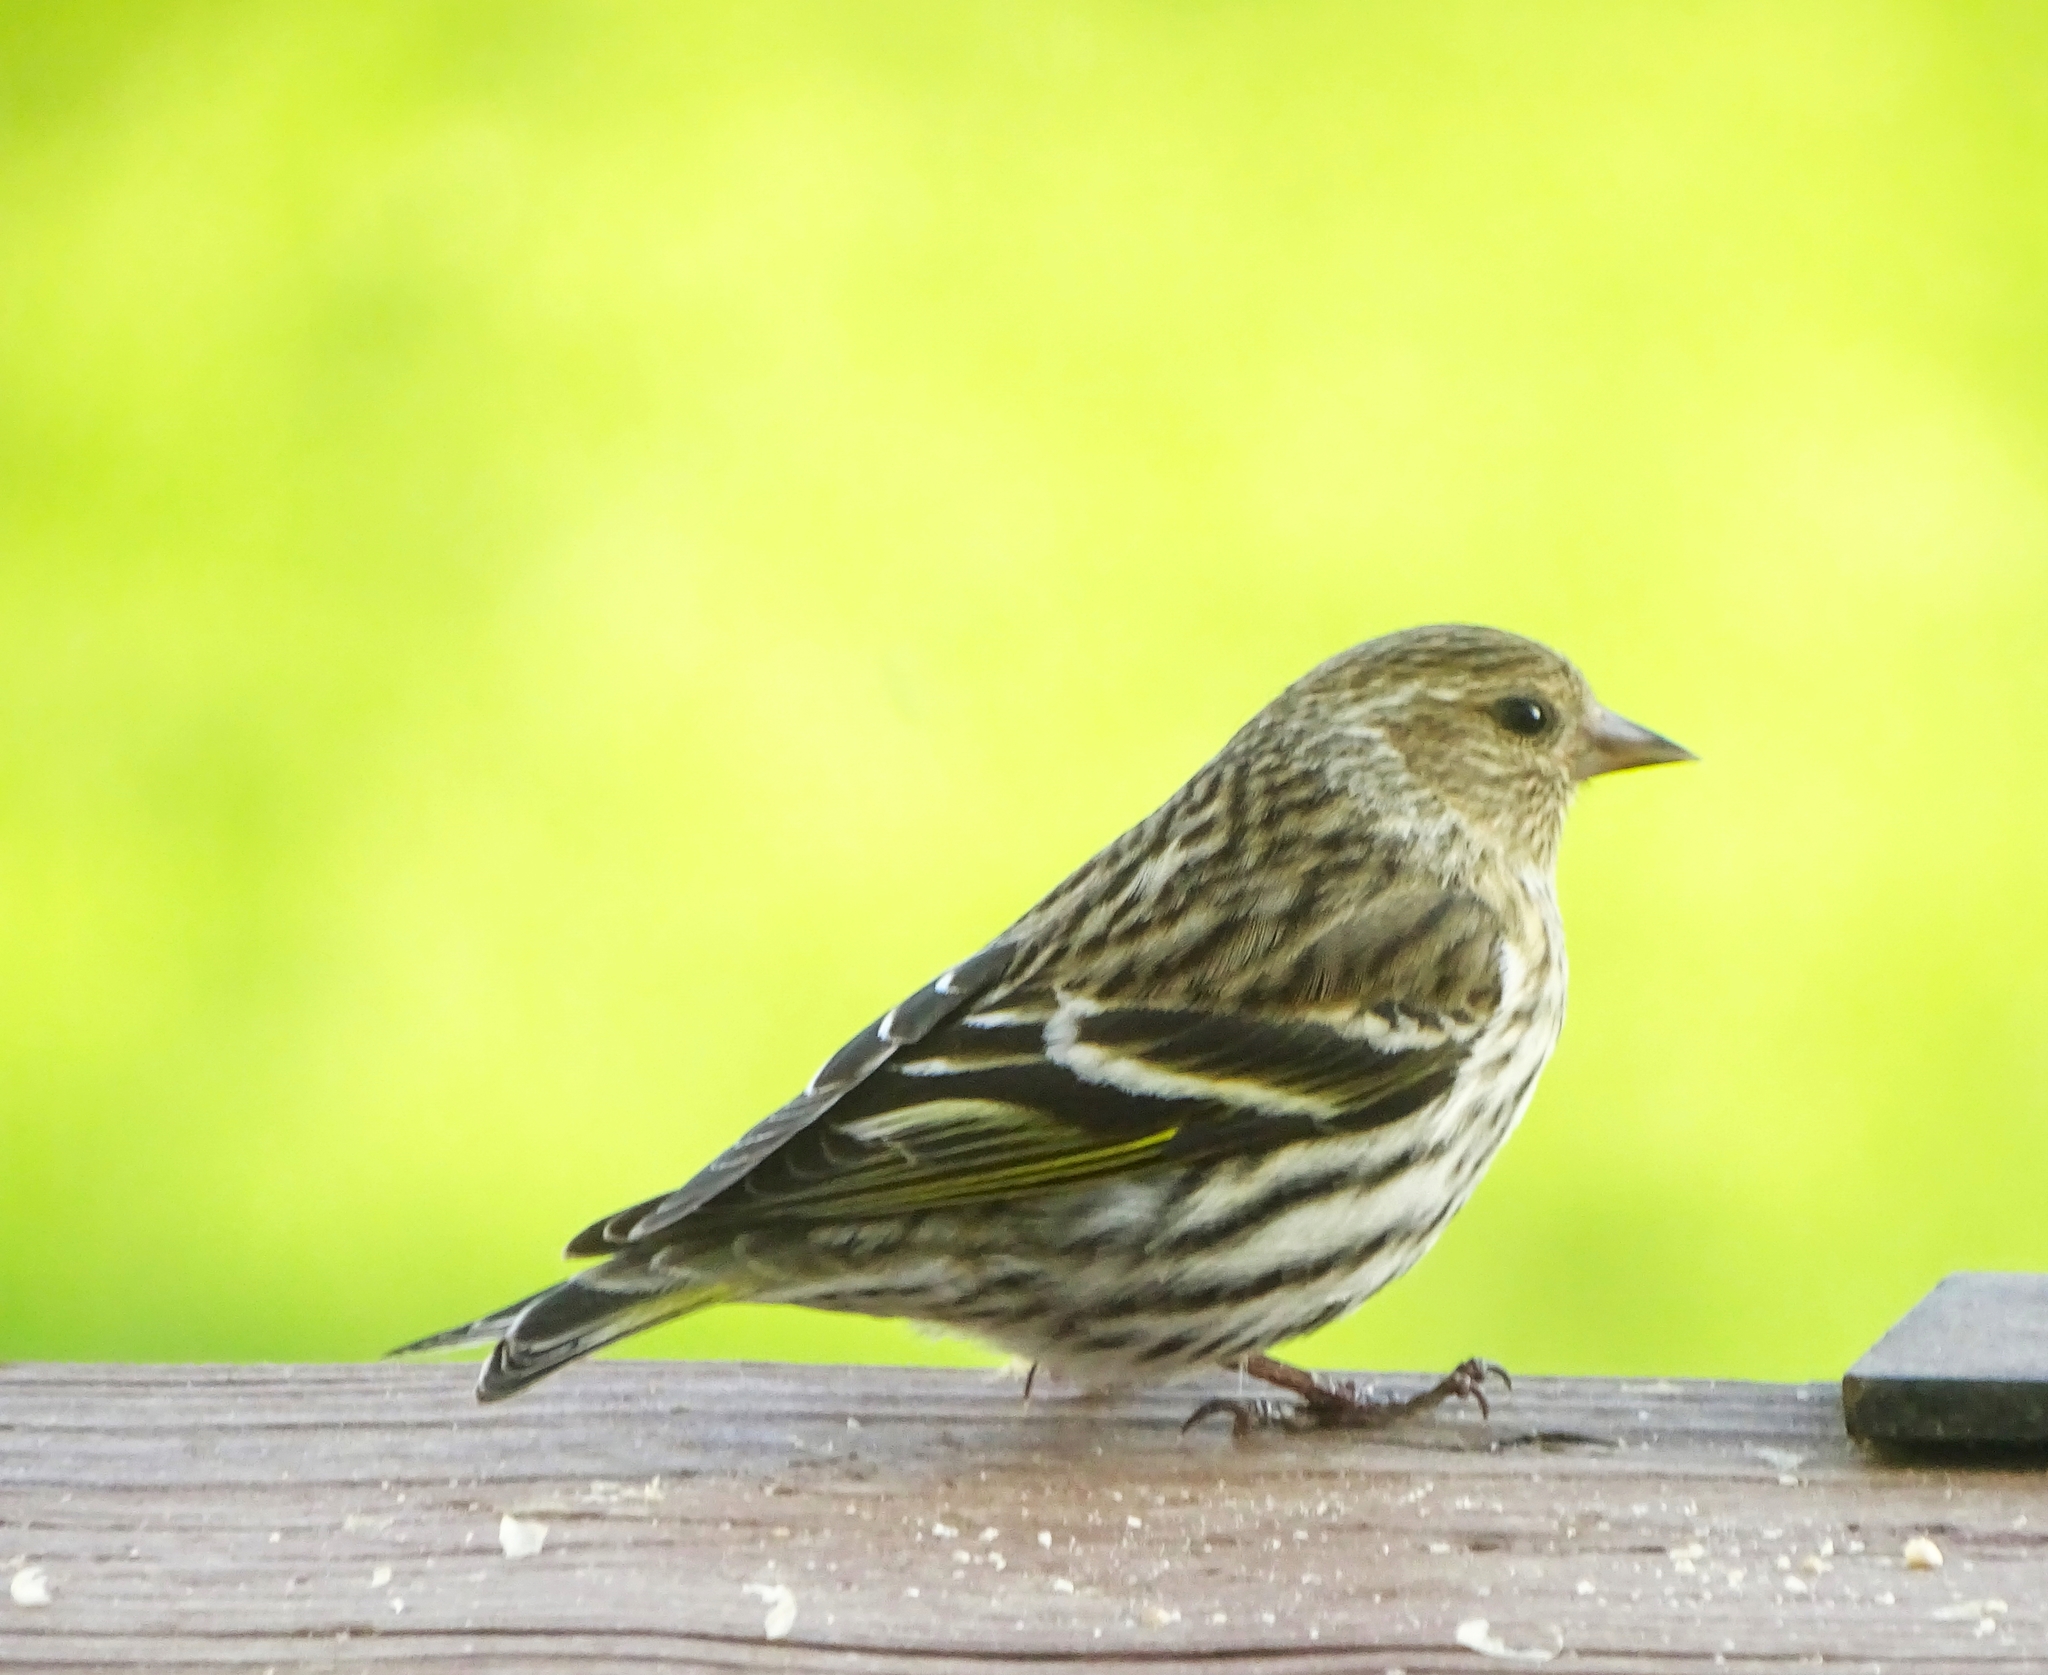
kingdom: Animalia
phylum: Chordata
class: Aves
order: Passeriformes
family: Fringillidae
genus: Spinus
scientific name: Spinus pinus
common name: Pine siskin
